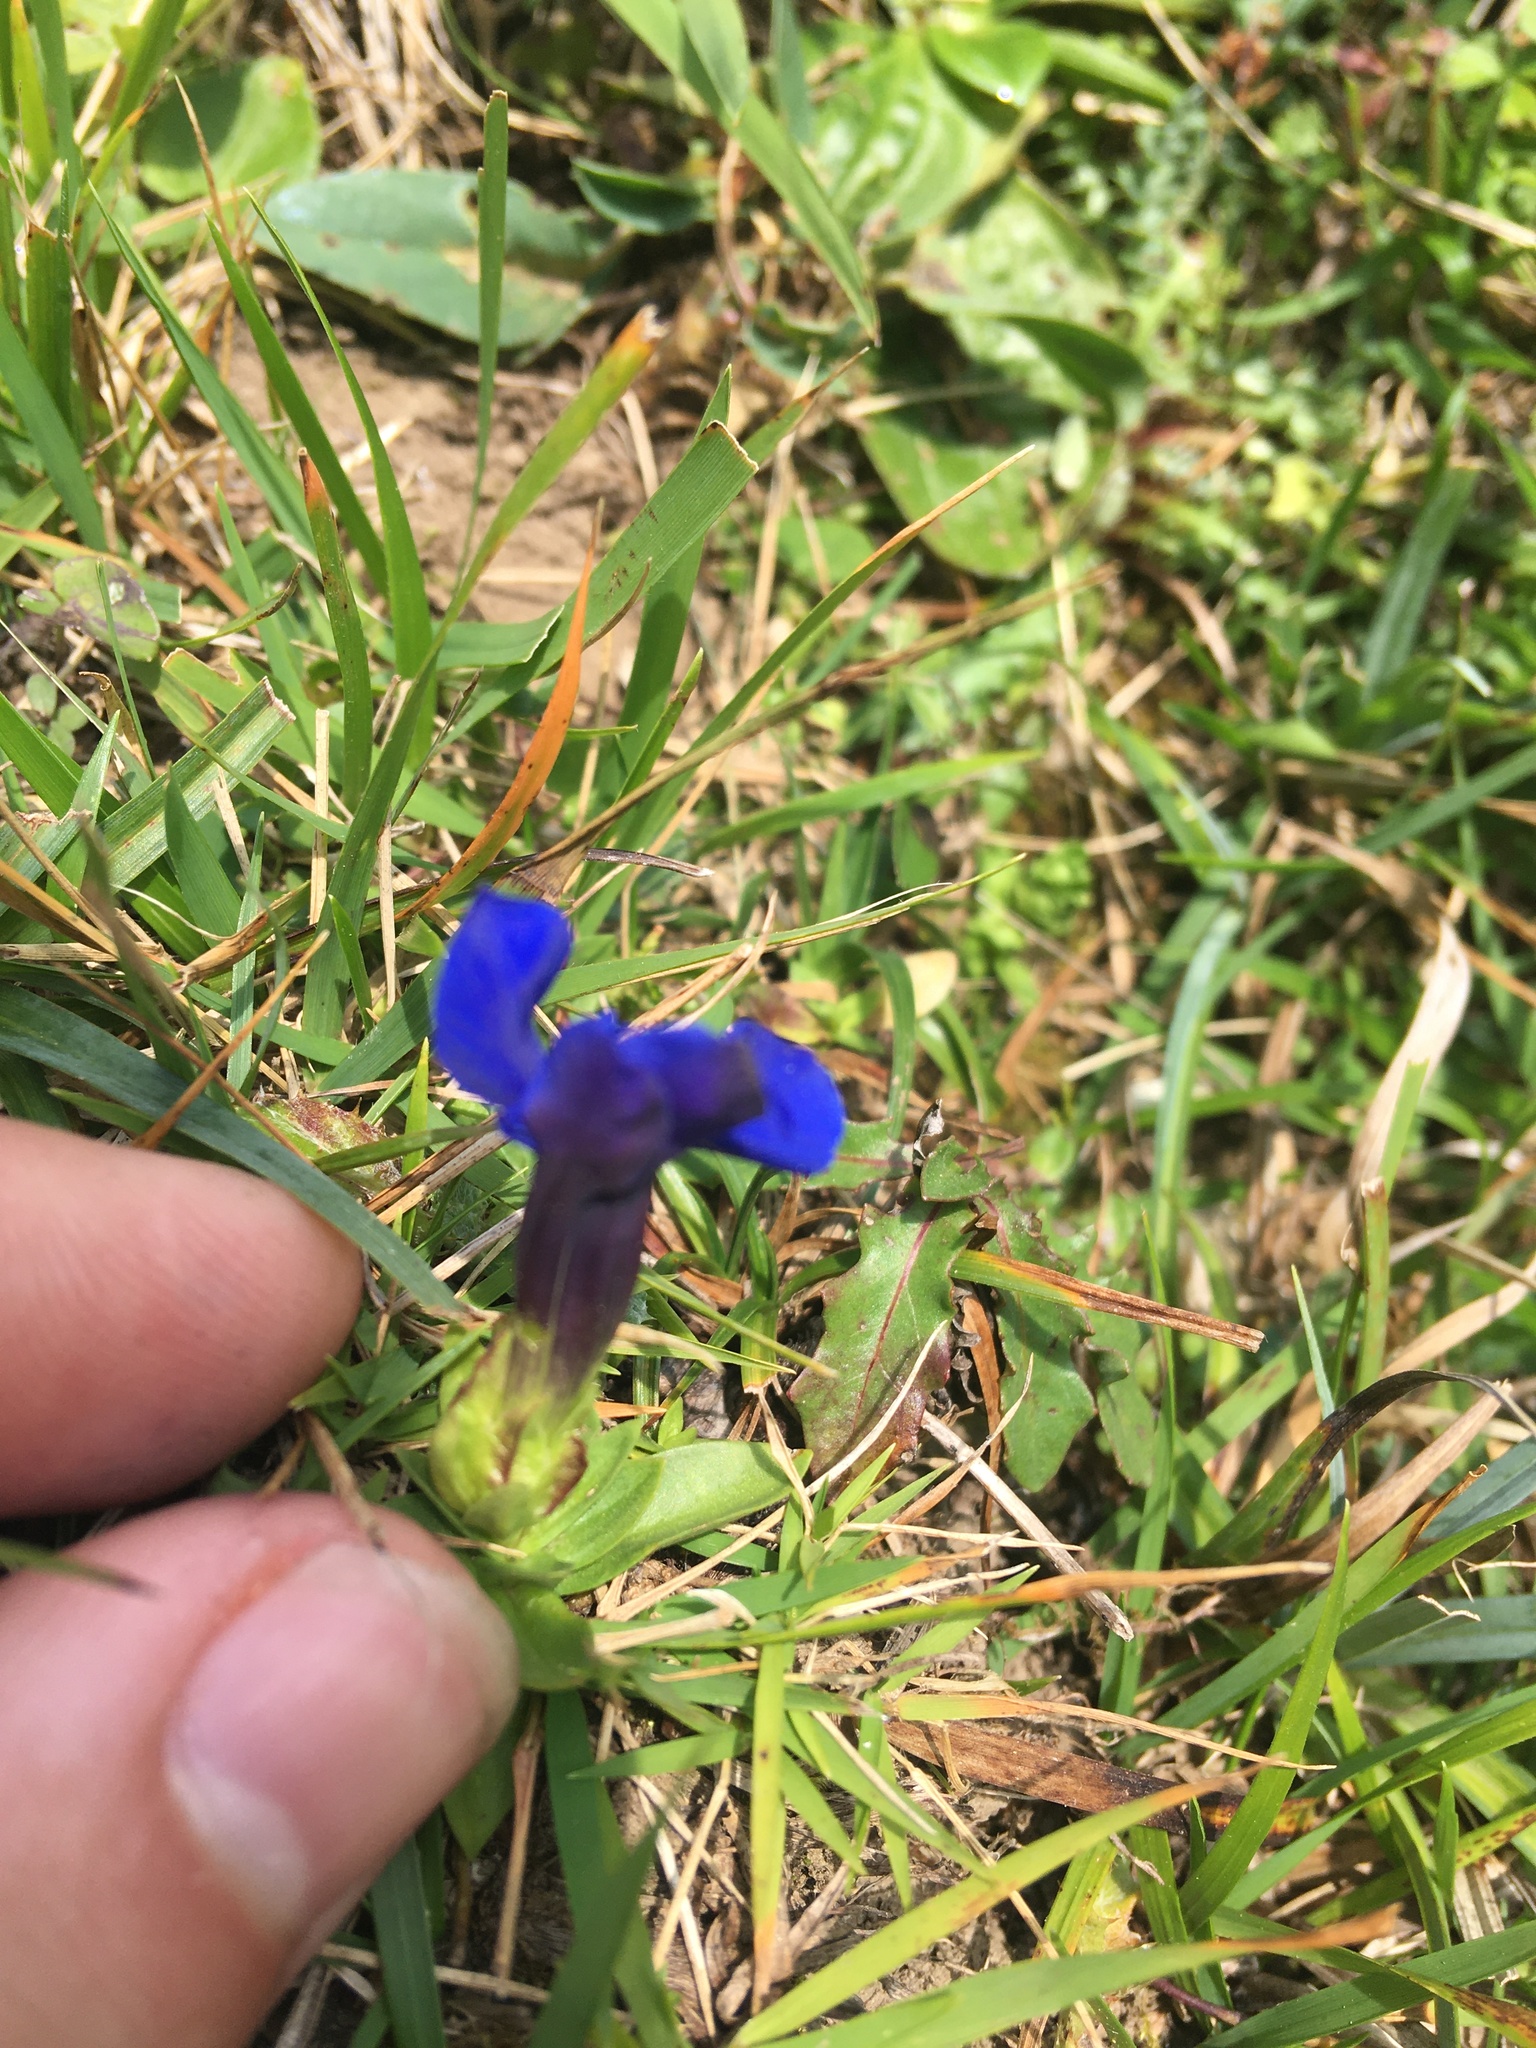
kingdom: Plantae
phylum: Tracheophyta
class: Magnoliopsida
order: Gentianales
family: Gentianaceae
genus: Gentiana
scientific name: Gentiana verna
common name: Spring gentian
